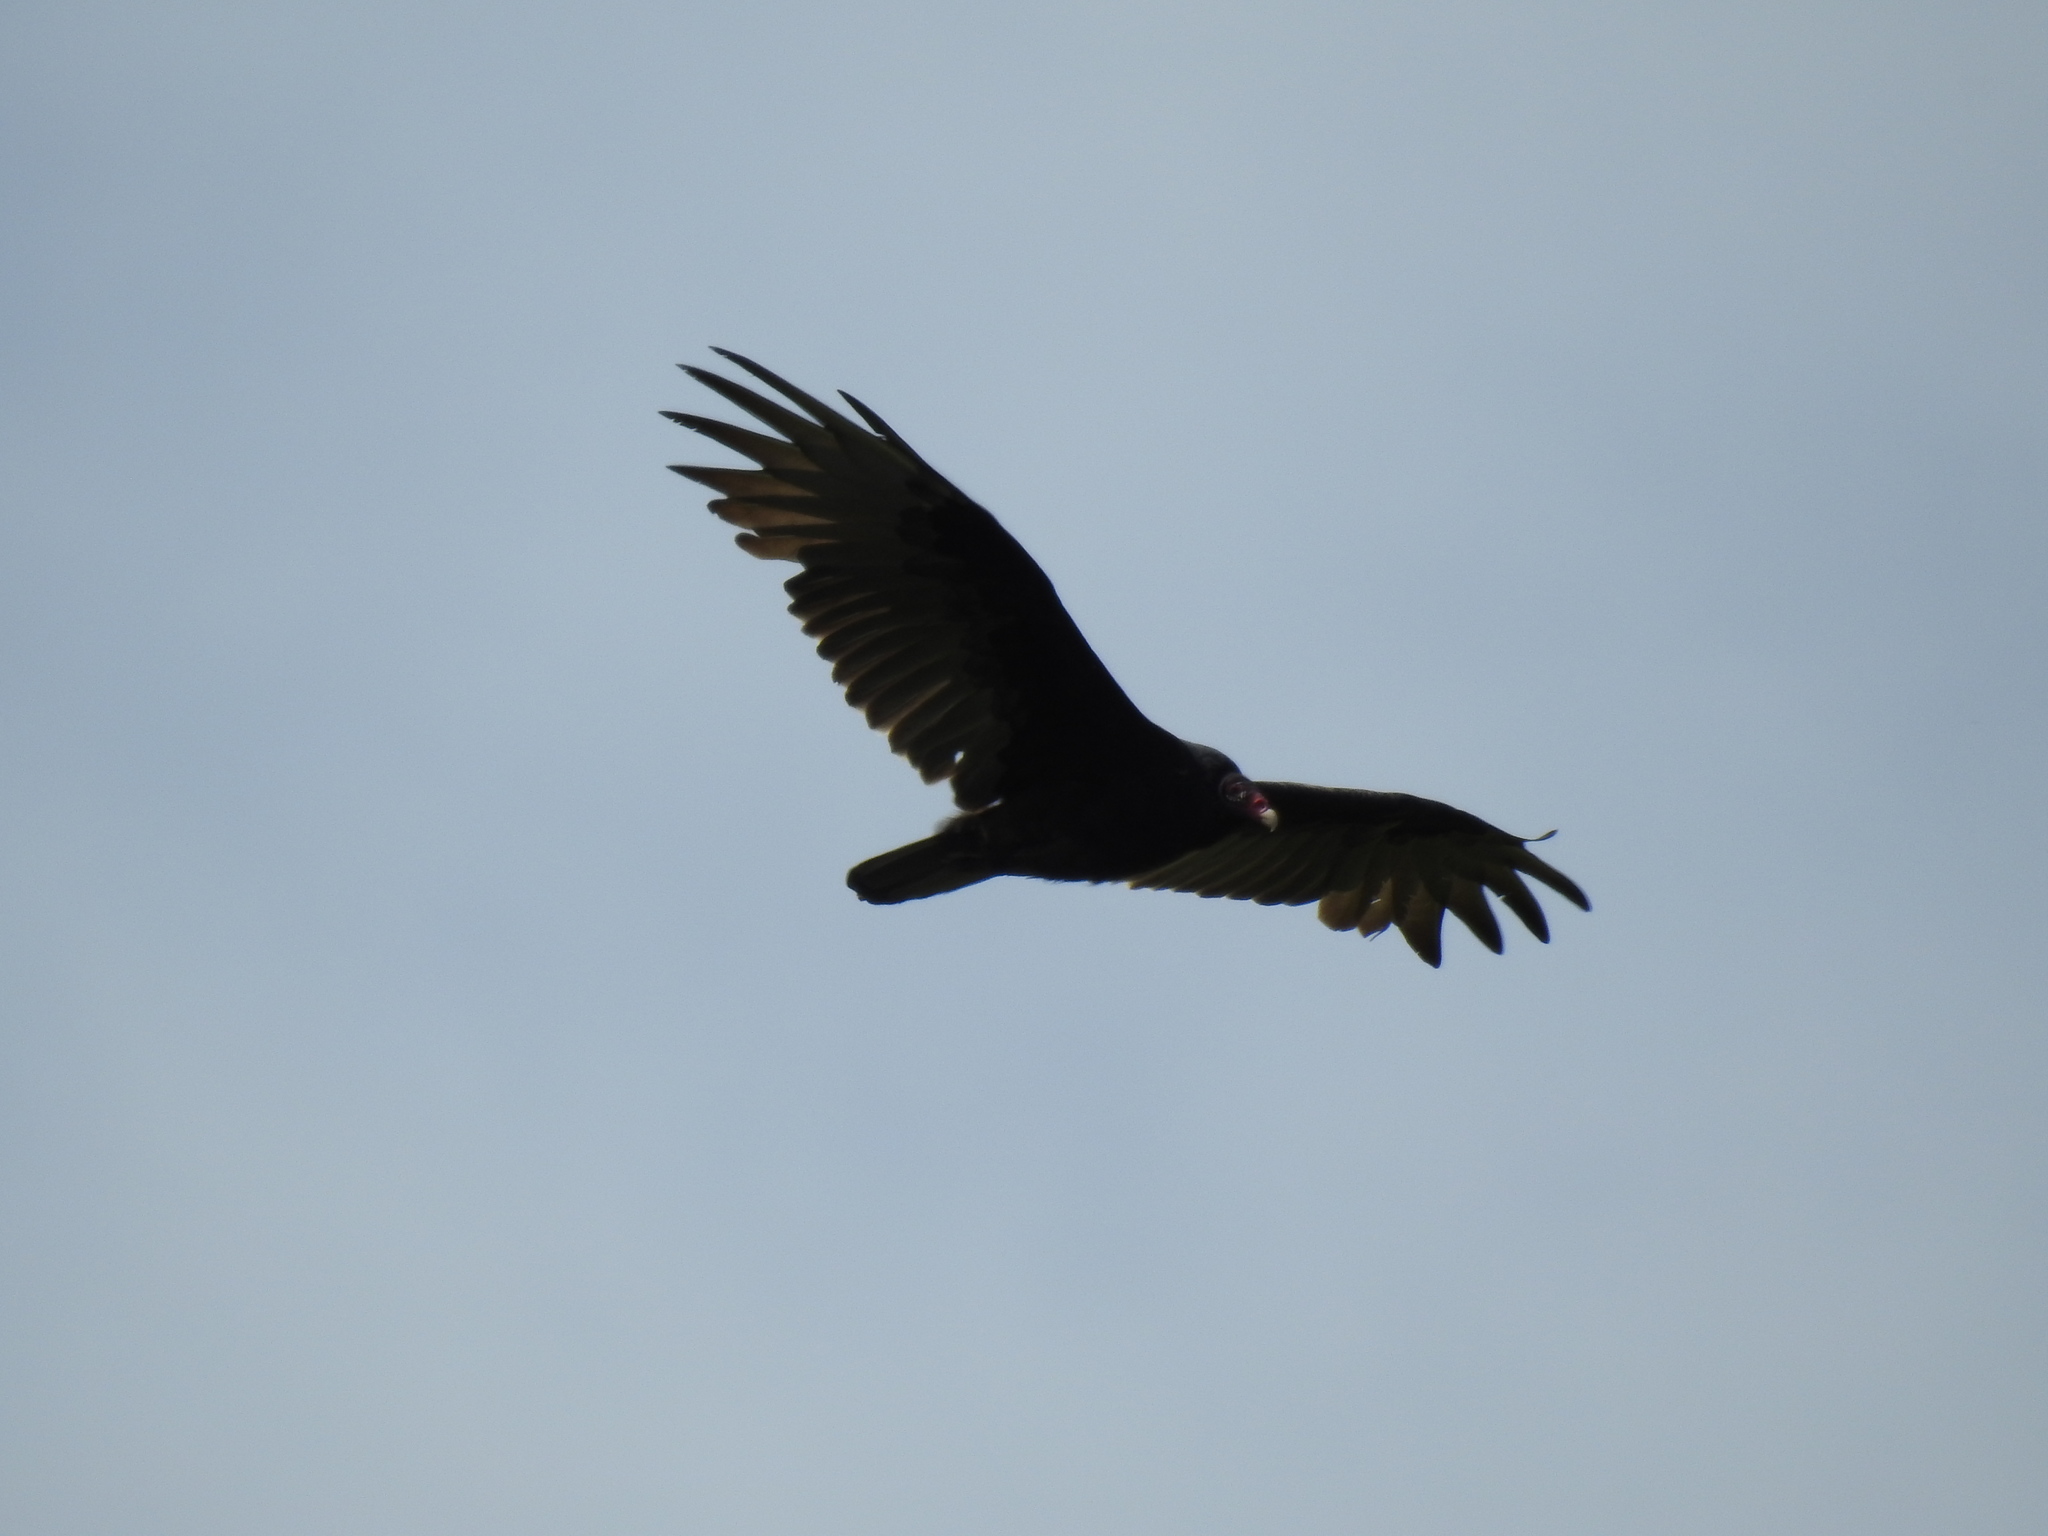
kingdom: Animalia
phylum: Chordata
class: Aves
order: Accipitriformes
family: Cathartidae
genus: Cathartes
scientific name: Cathartes aura
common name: Turkey vulture
